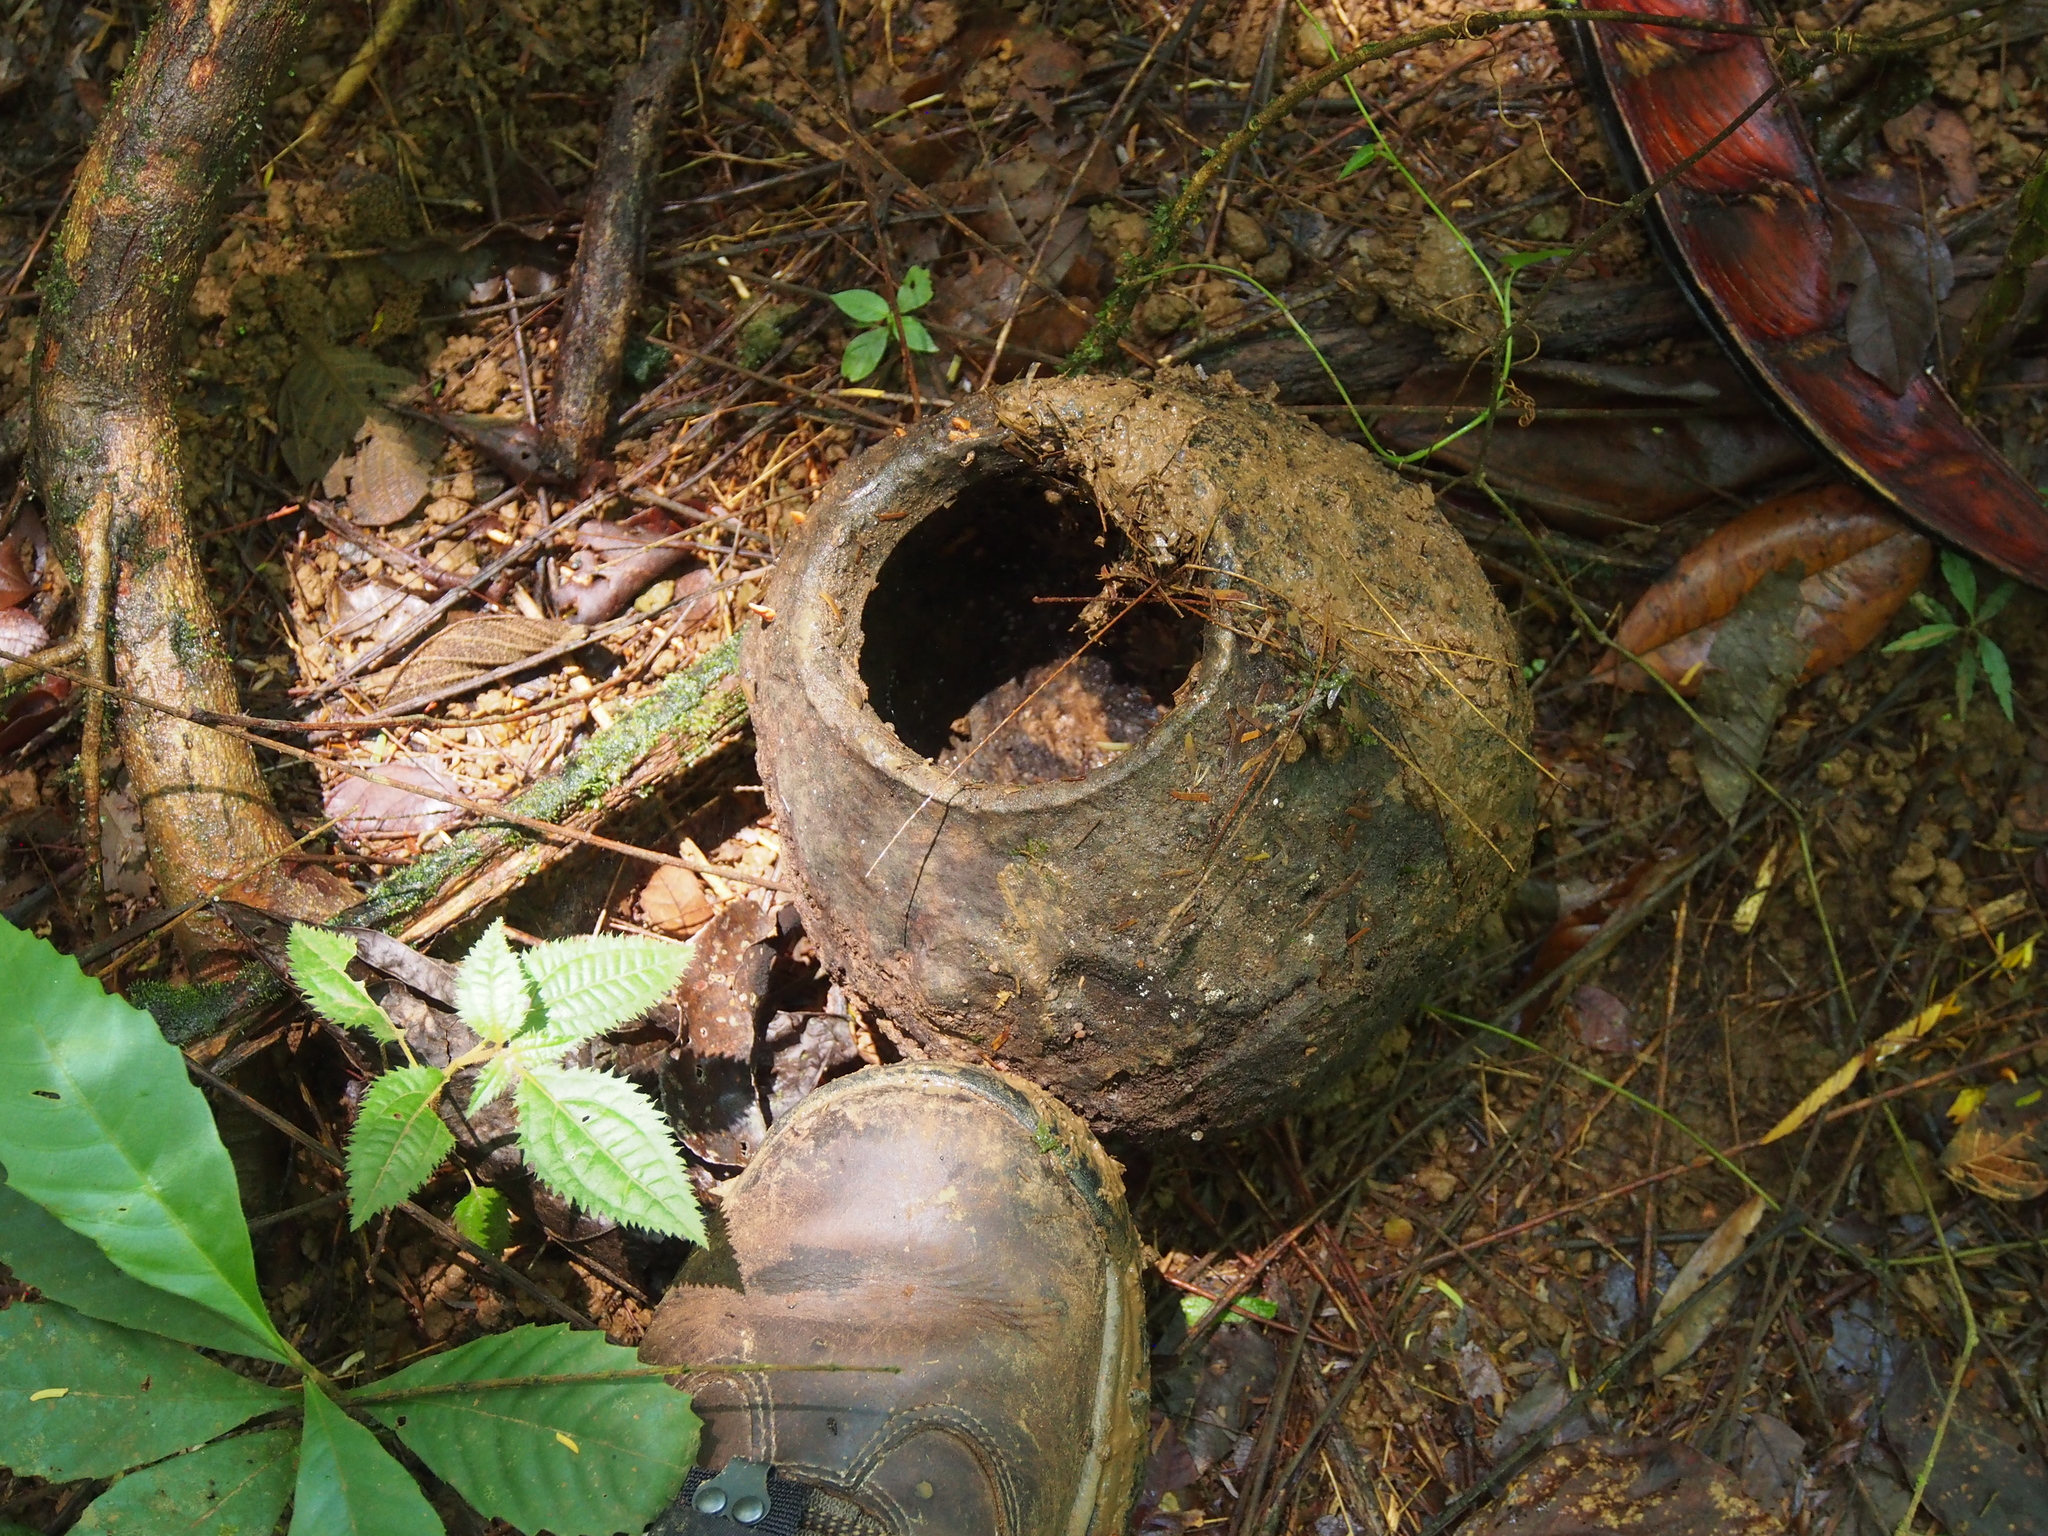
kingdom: Plantae
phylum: Tracheophyta
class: Magnoliopsida
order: Ericales
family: Lecythidaceae
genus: Lecythis
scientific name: Lecythis ampla
